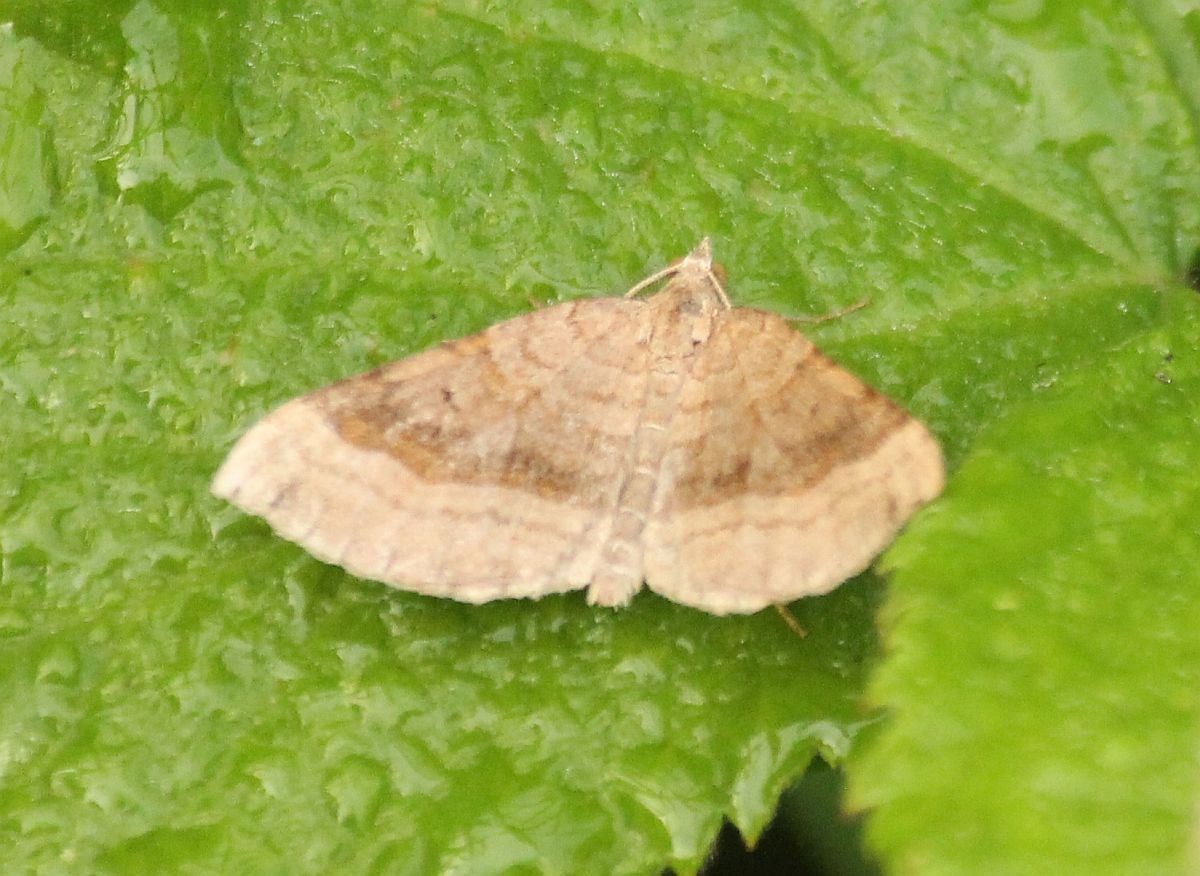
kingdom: Animalia
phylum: Arthropoda
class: Insecta
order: Lepidoptera
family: Geometridae
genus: Scotopteryx
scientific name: Scotopteryx chenopodiata
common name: Shaded broad-bar
